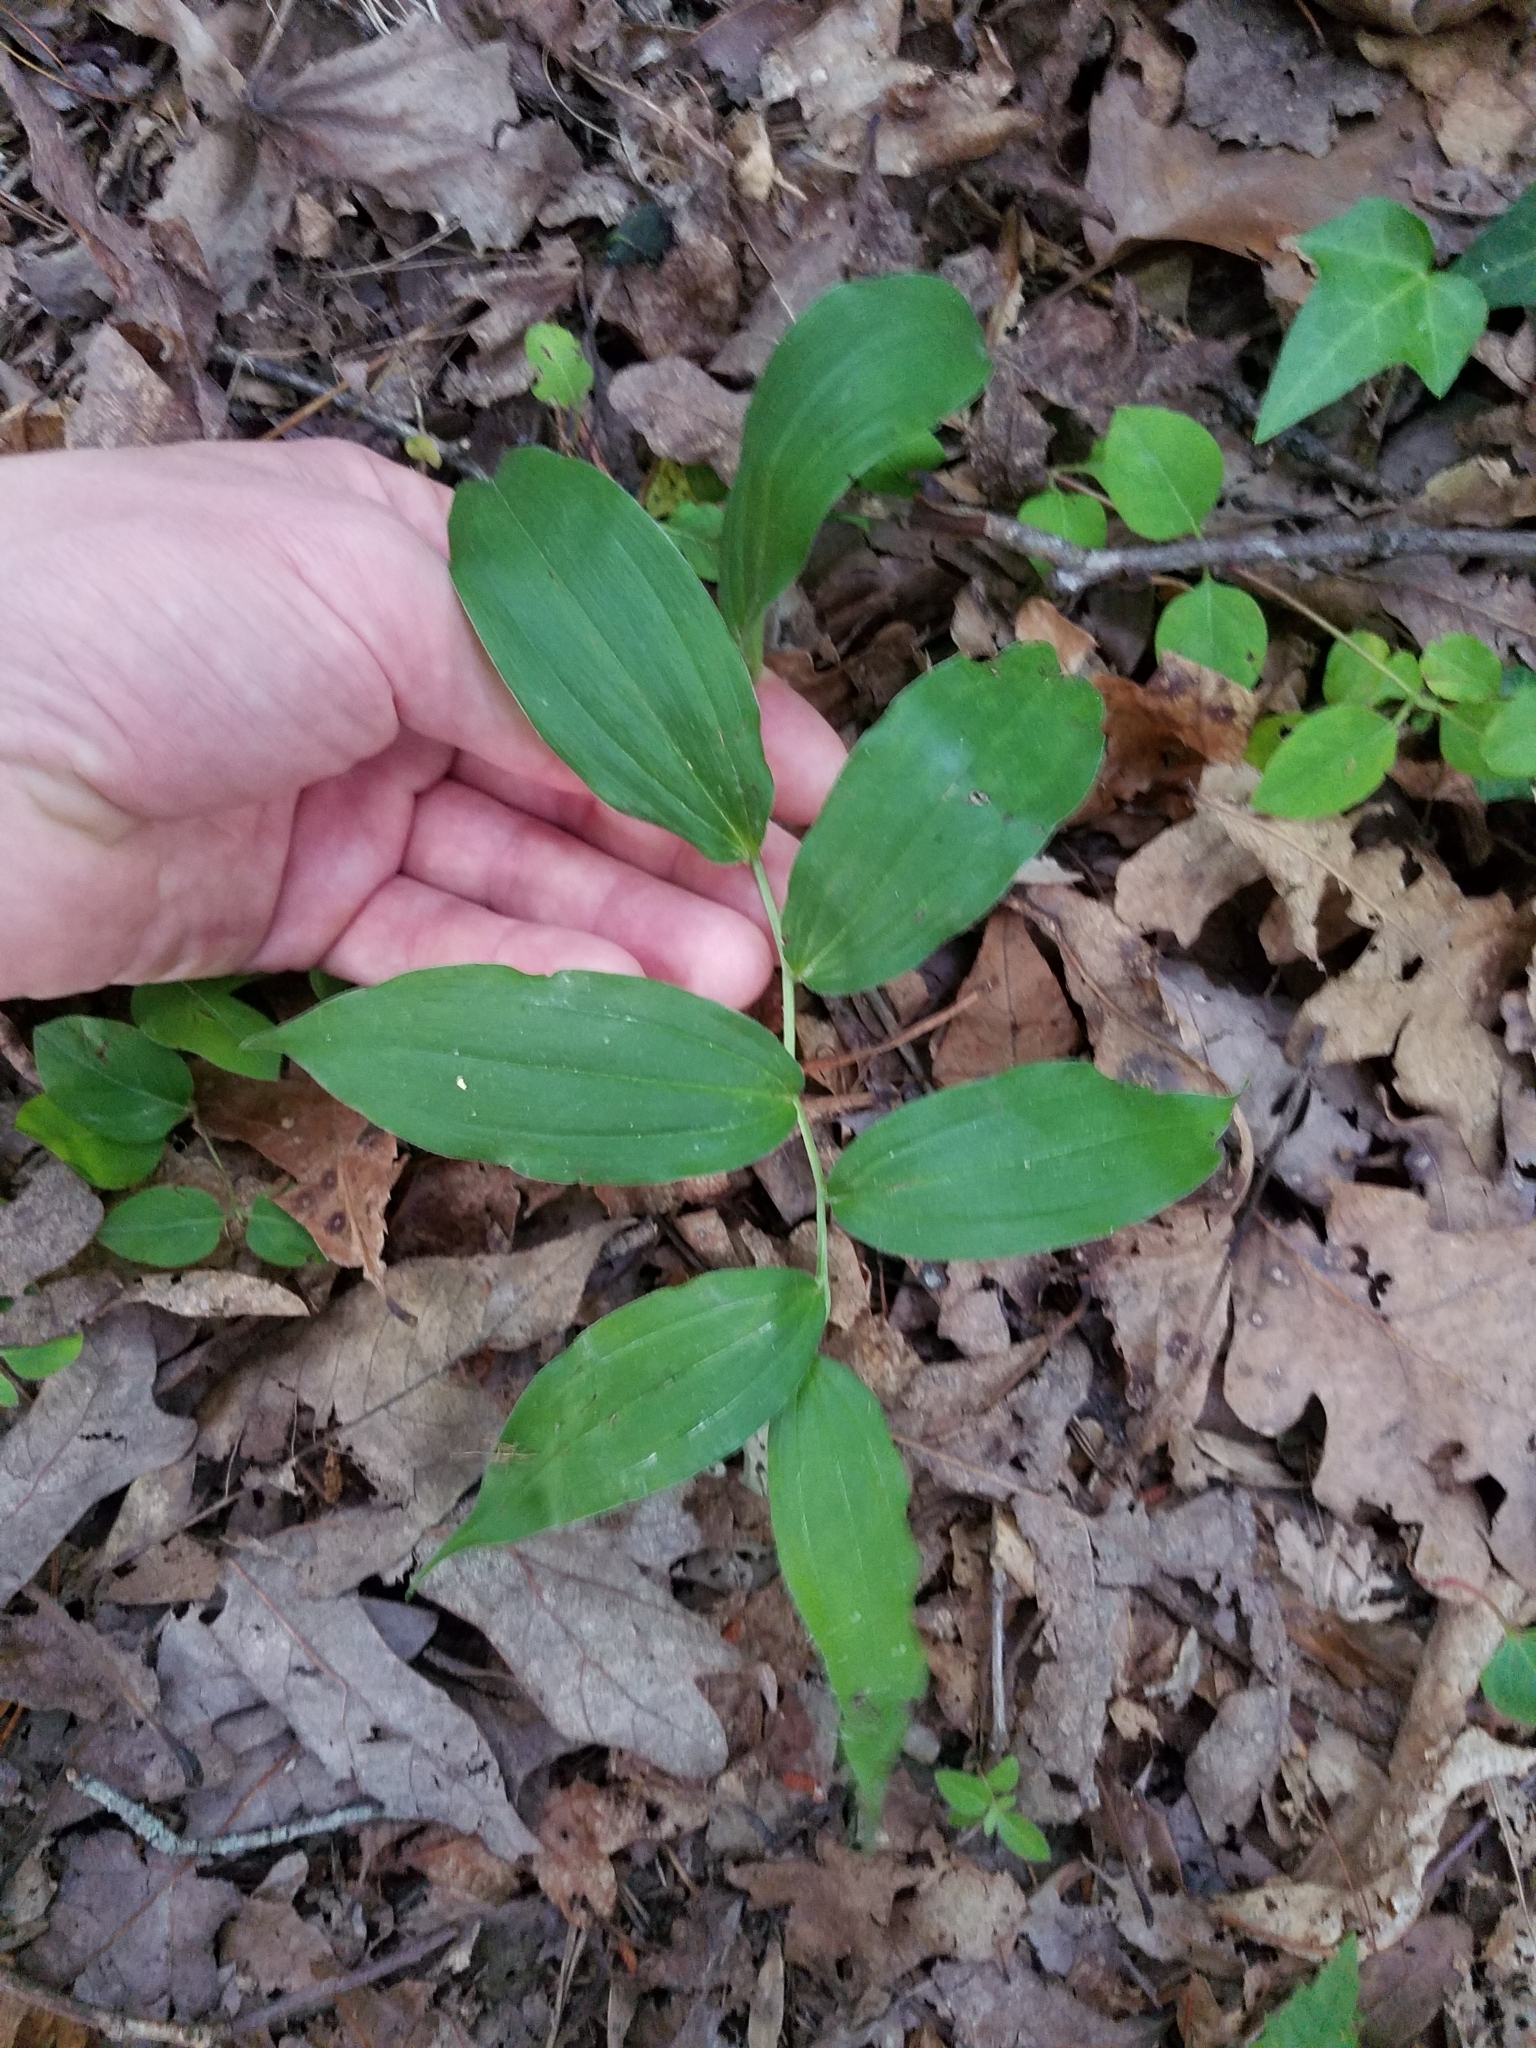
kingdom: Plantae
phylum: Tracheophyta
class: Liliopsida
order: Asparagales
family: Asparagaceae
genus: Maianthemum
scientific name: Maianthemum racemosum
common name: False spikenard
